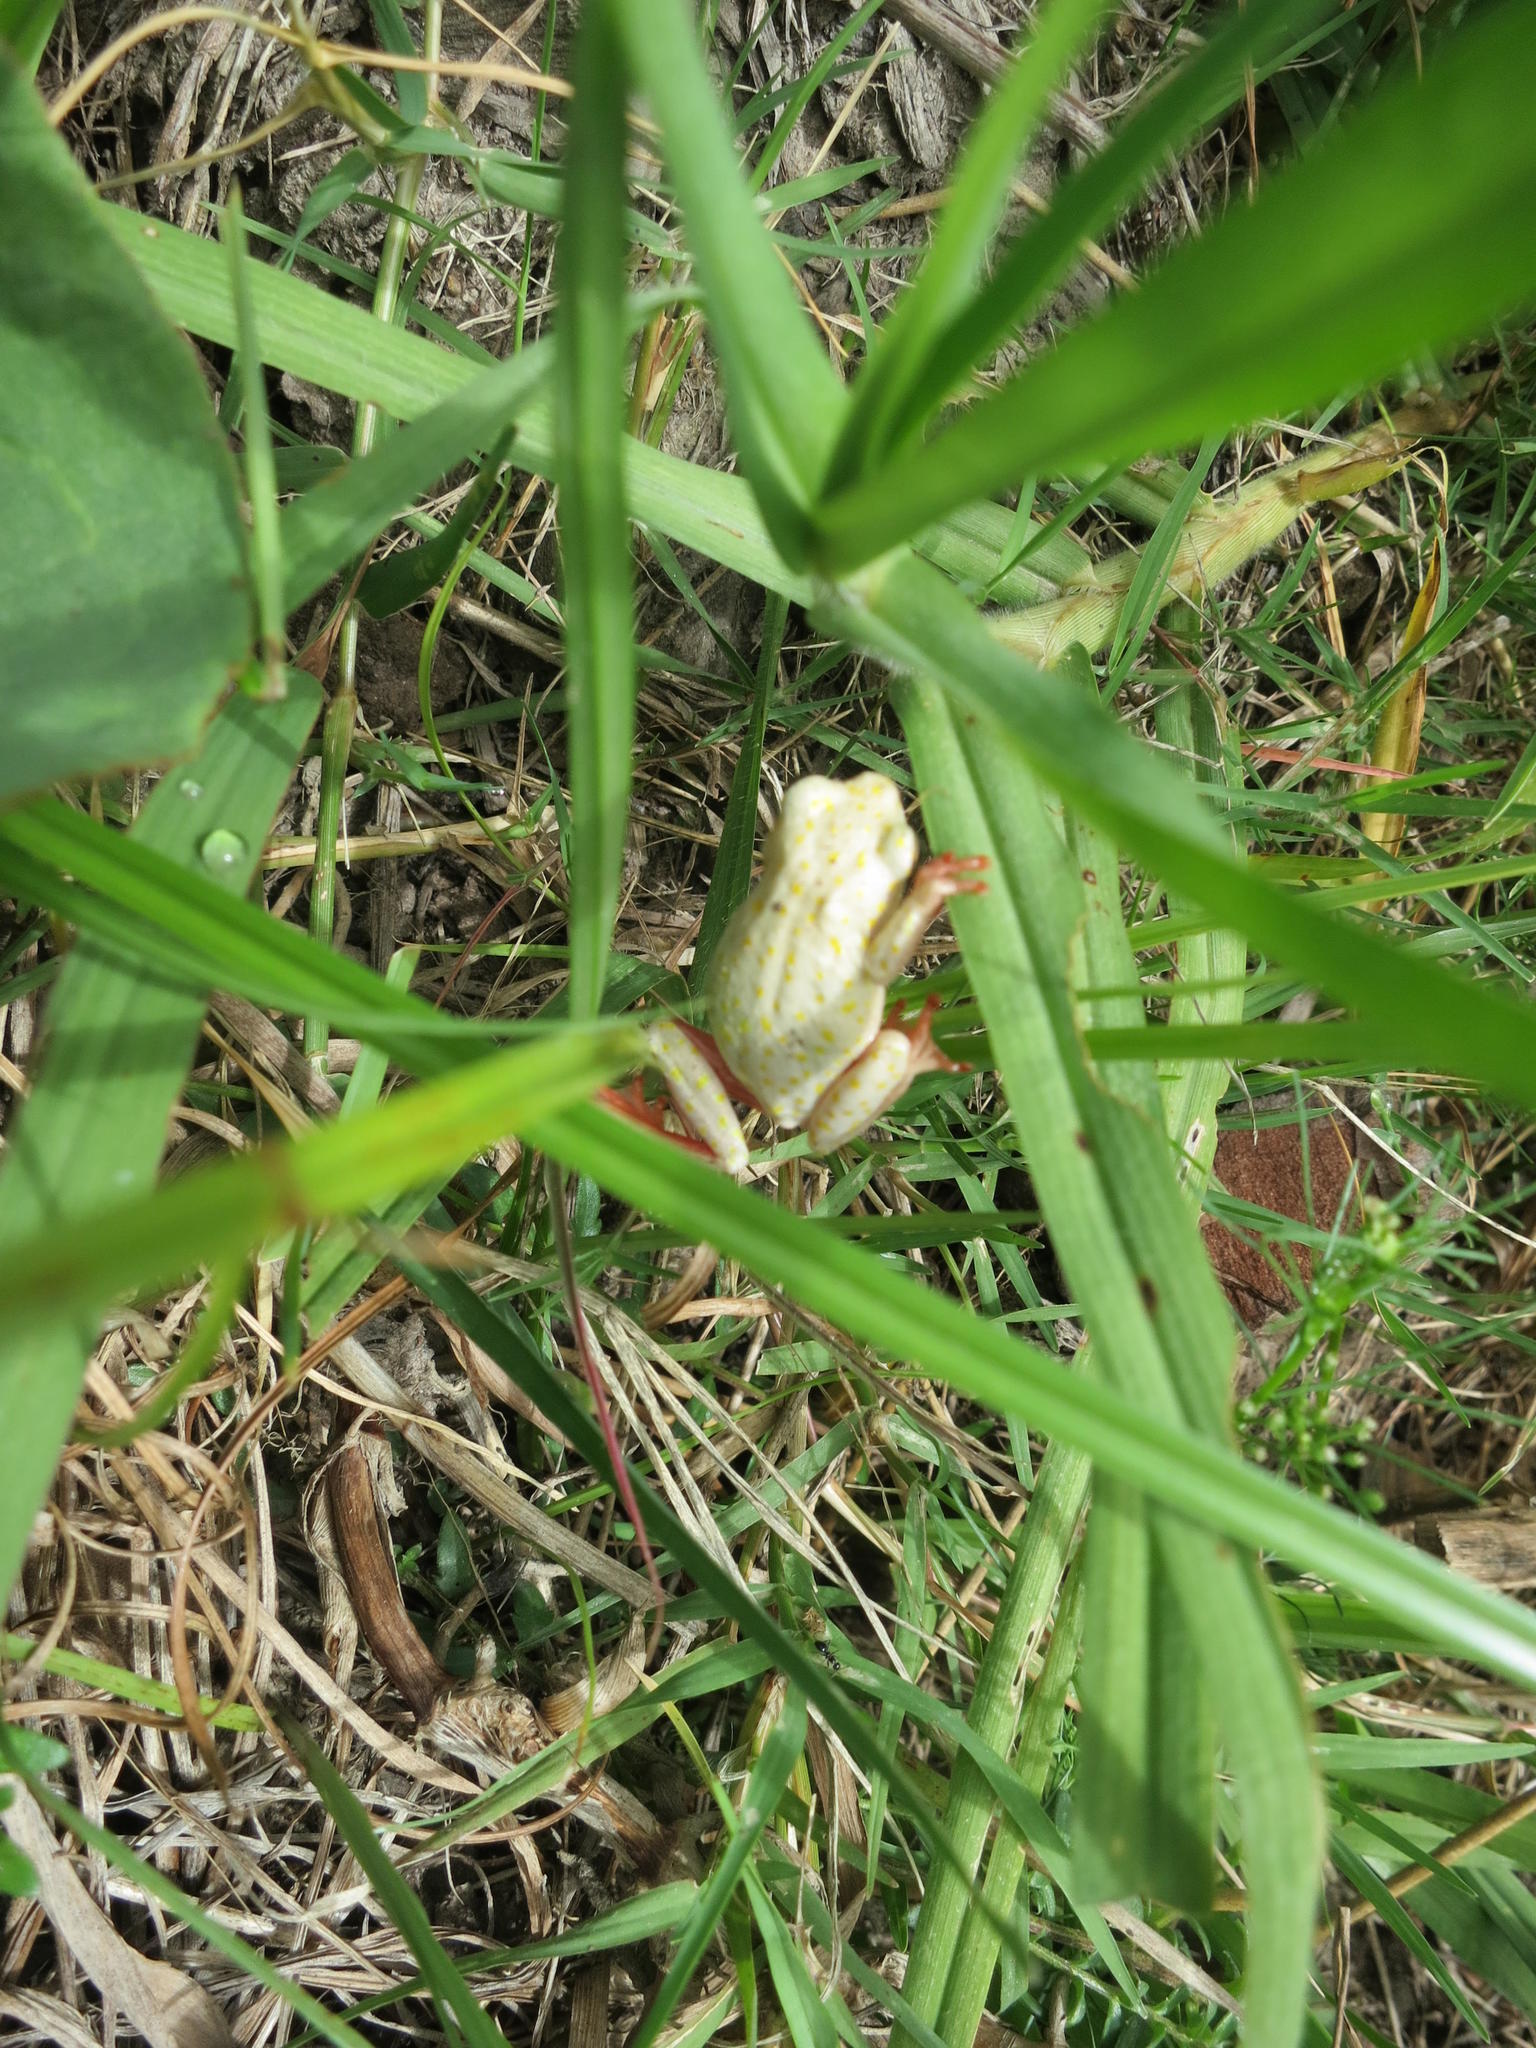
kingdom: Animalia
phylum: Chordata
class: Amphibia
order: Anura
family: Hyperoliidae
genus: Hyperolius
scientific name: Hyperolius marmoratus
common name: Painted reed frog
